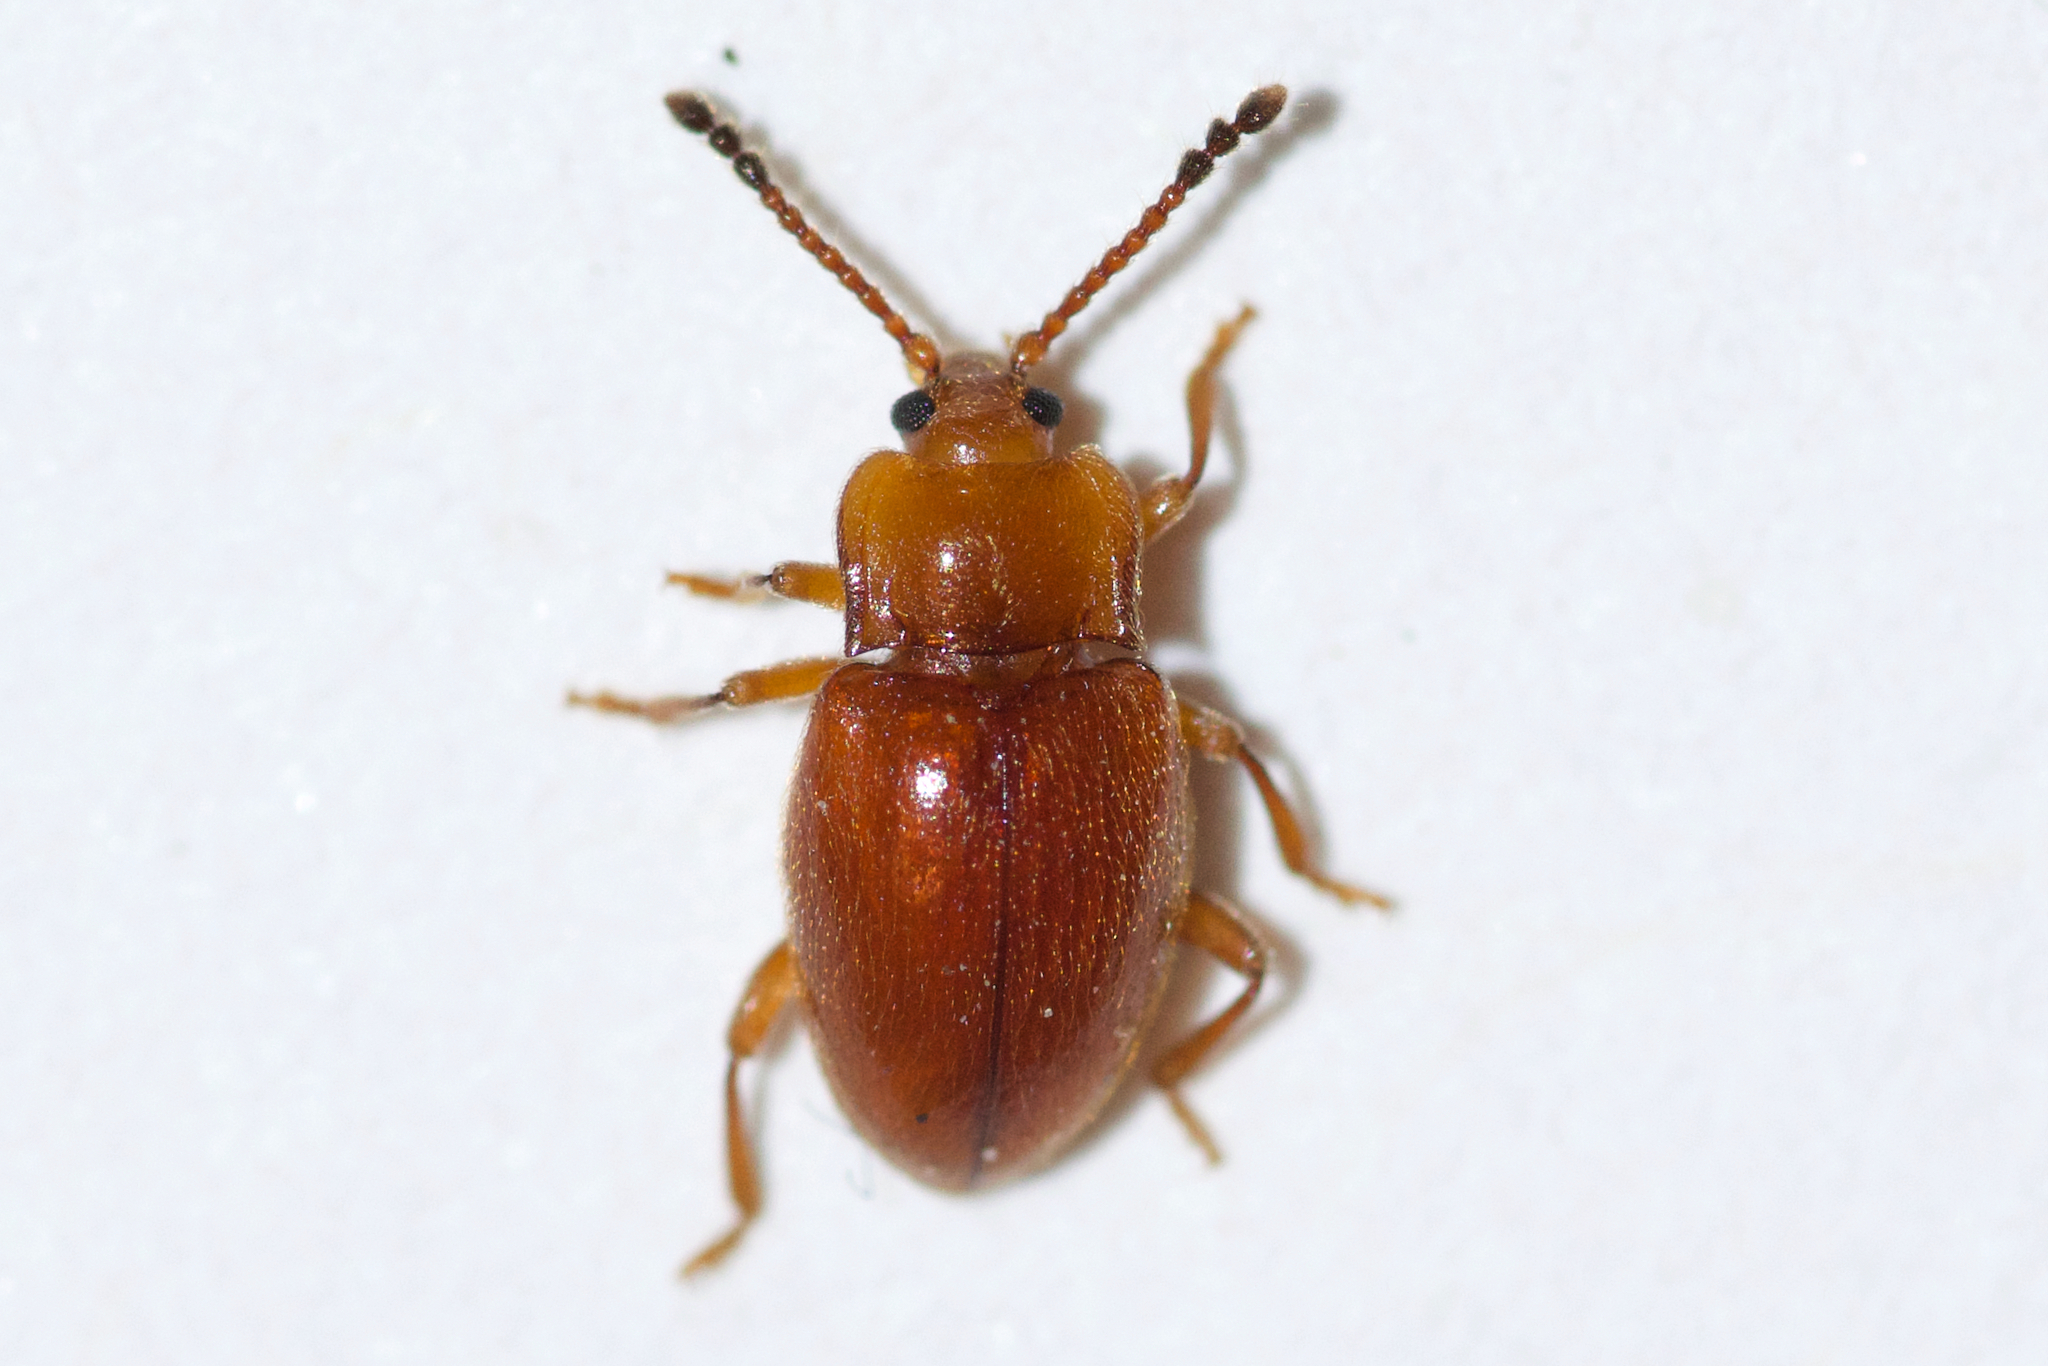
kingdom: Animalia
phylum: Arthropoda
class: Insecta
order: Coleoptera
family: Endomychidae
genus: Danae
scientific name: Danae testacea
